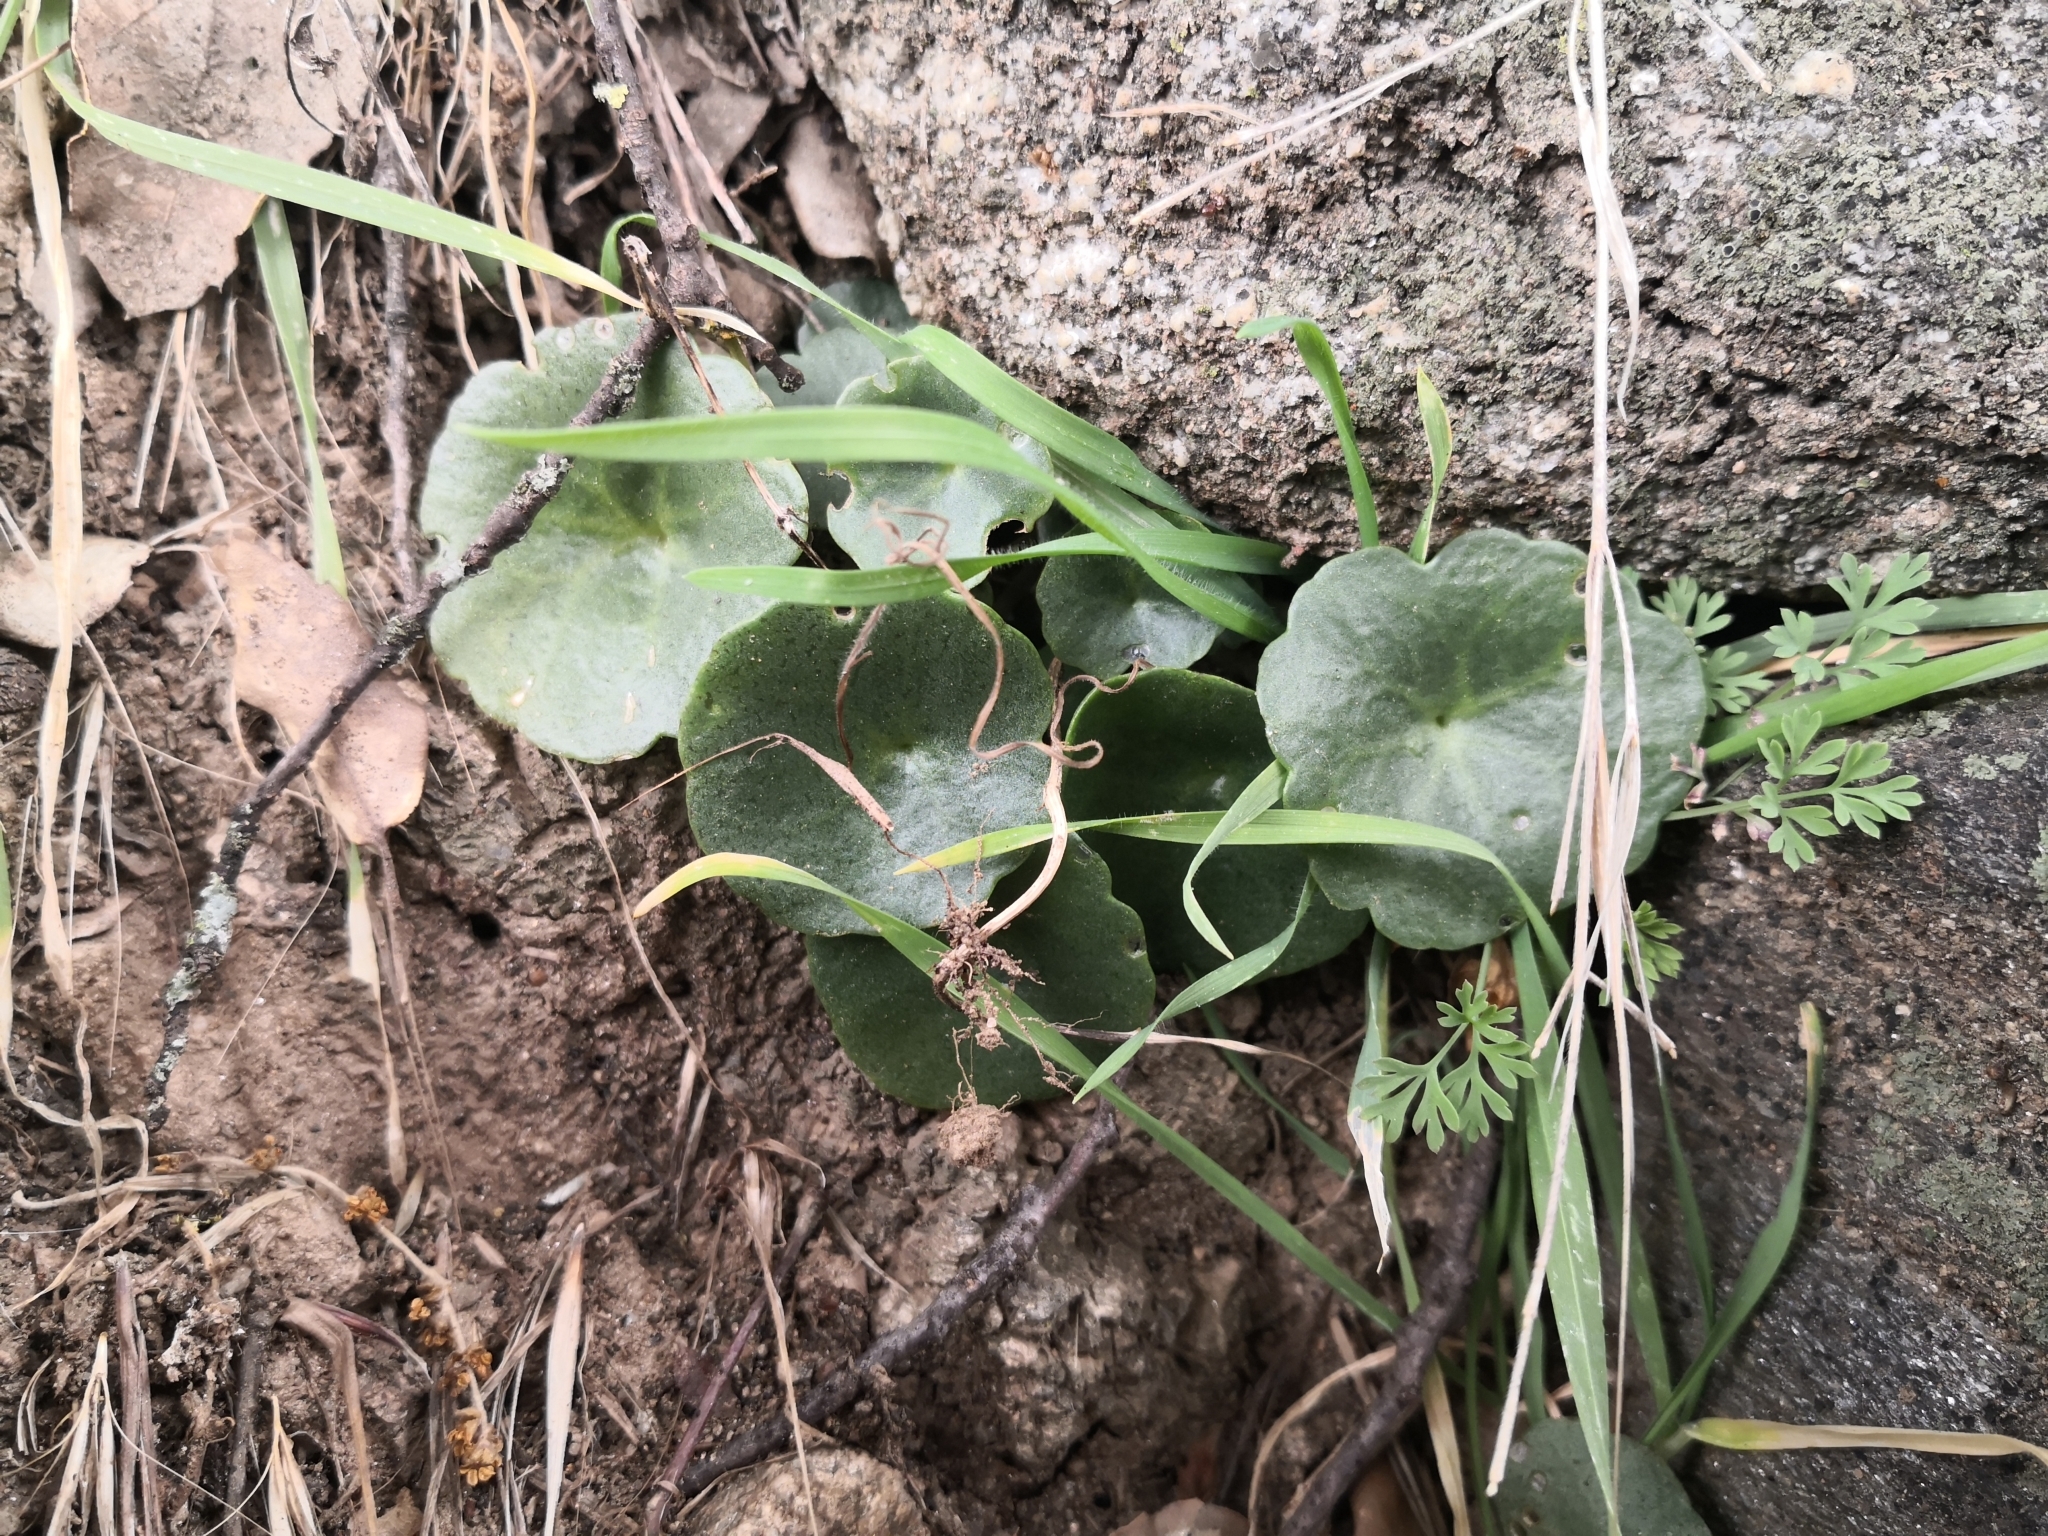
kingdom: Plantae
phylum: Tracheophyta
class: Magnoliopsida
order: Saxifragales
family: Crassulaceae
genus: Umbilicus
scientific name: Umbilicus rupestris
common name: Navelwort
